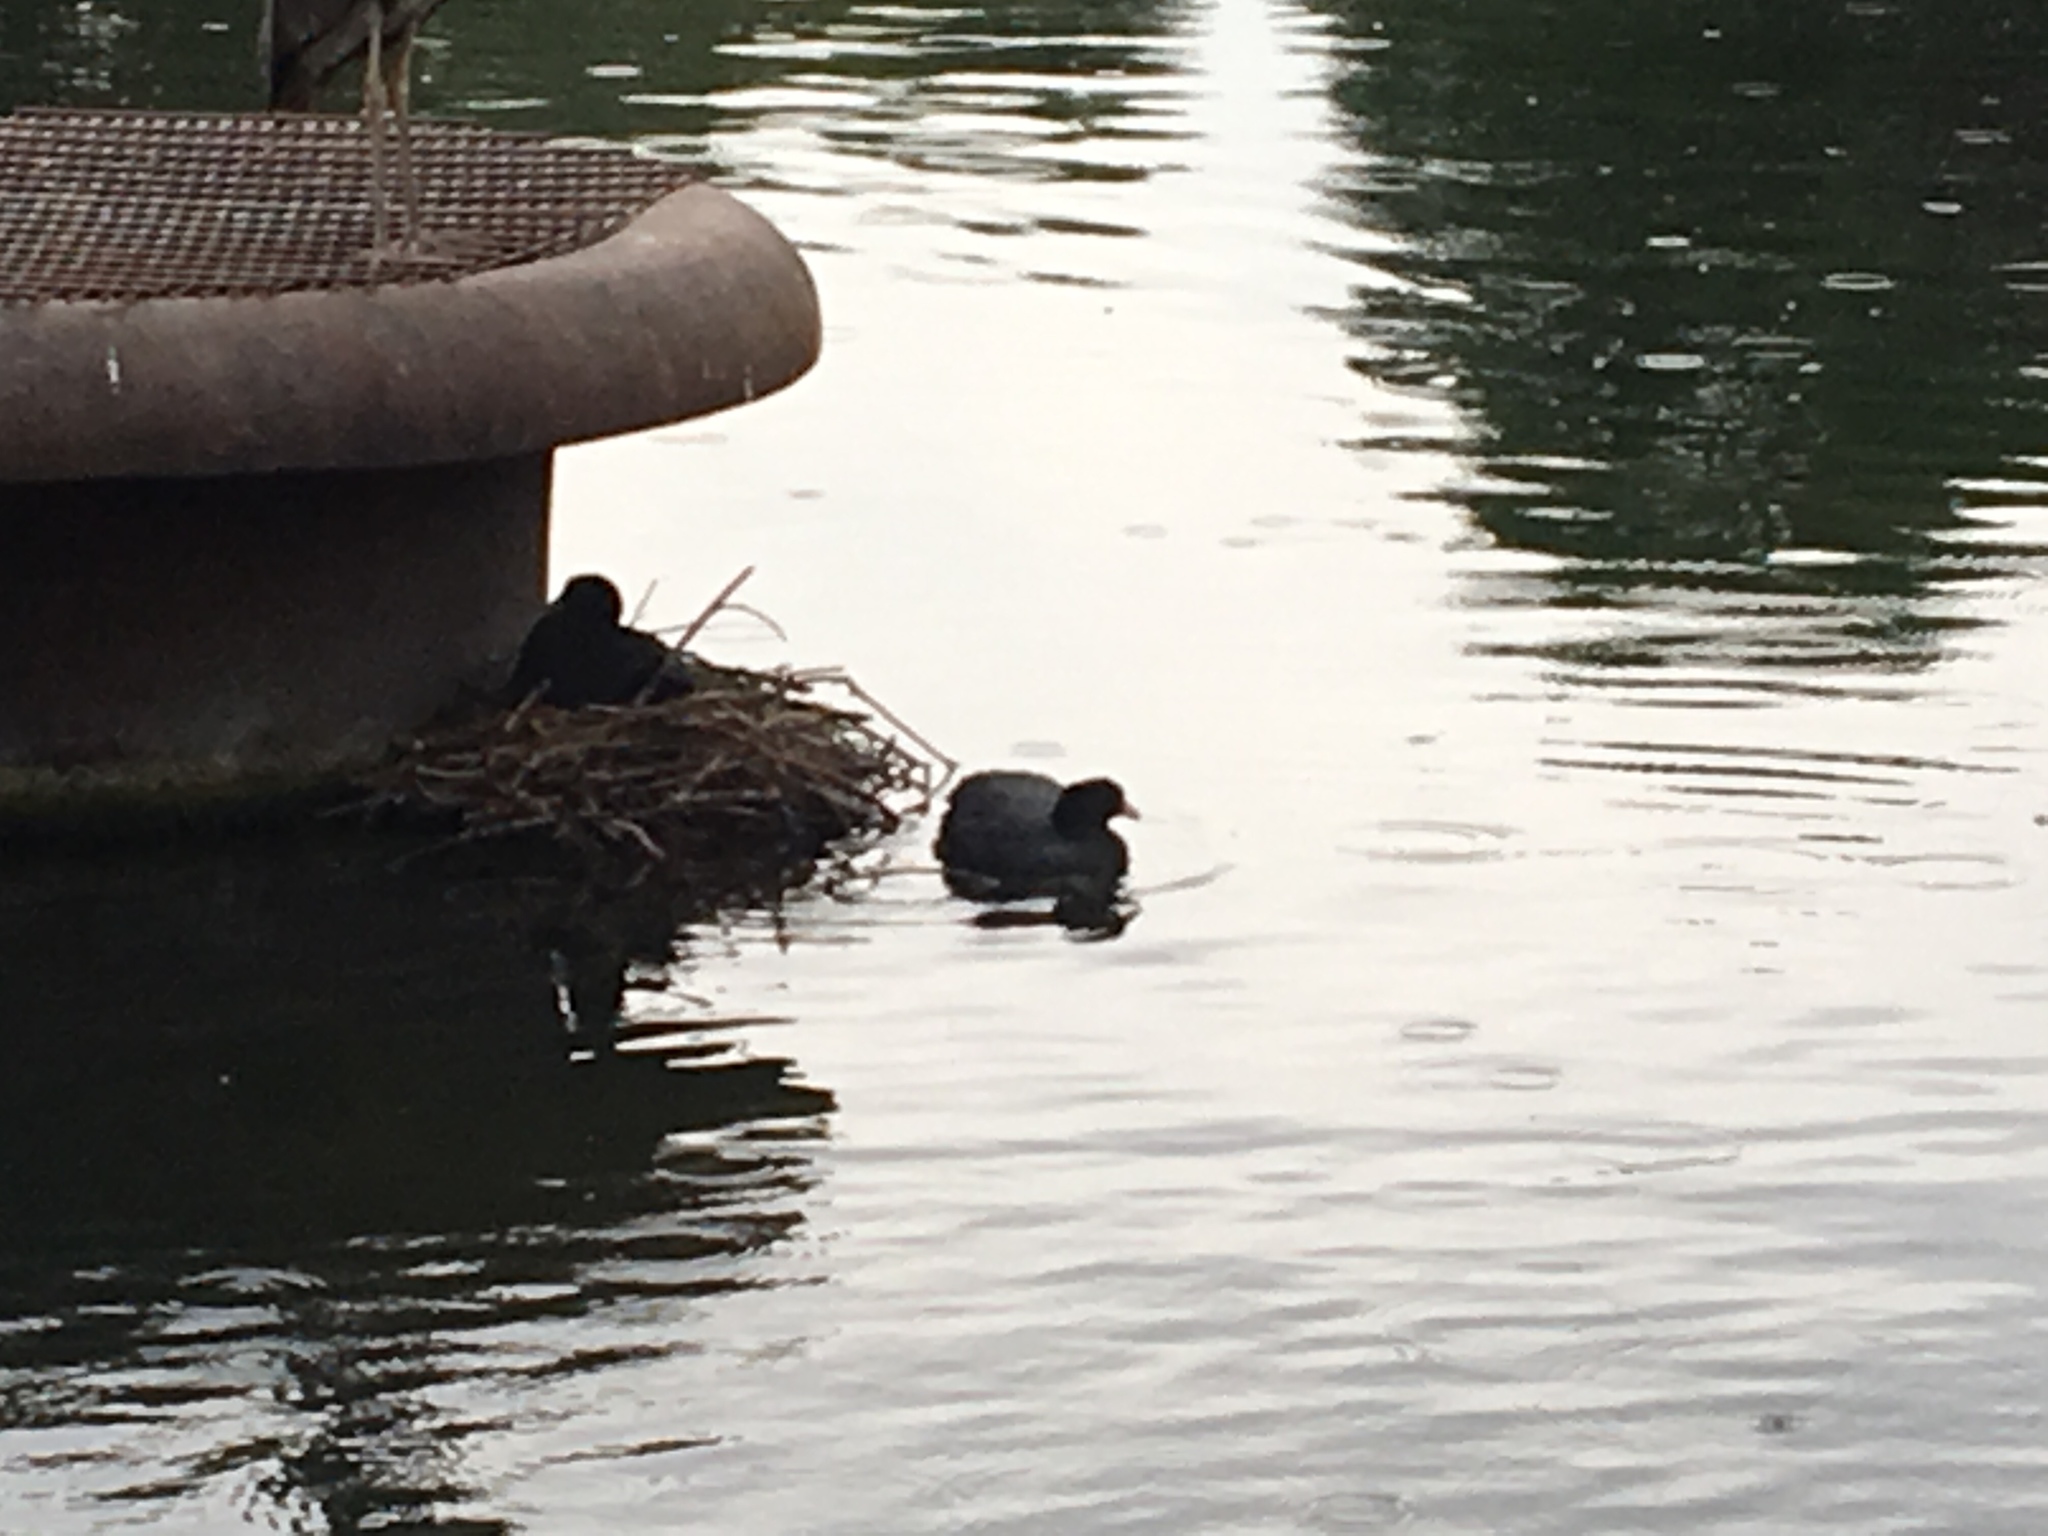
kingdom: Animalia
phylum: Chordata
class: Aves
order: Gruiformes
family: Rallidae
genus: Fulica
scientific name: Fulica atra
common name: Eurasian coot
